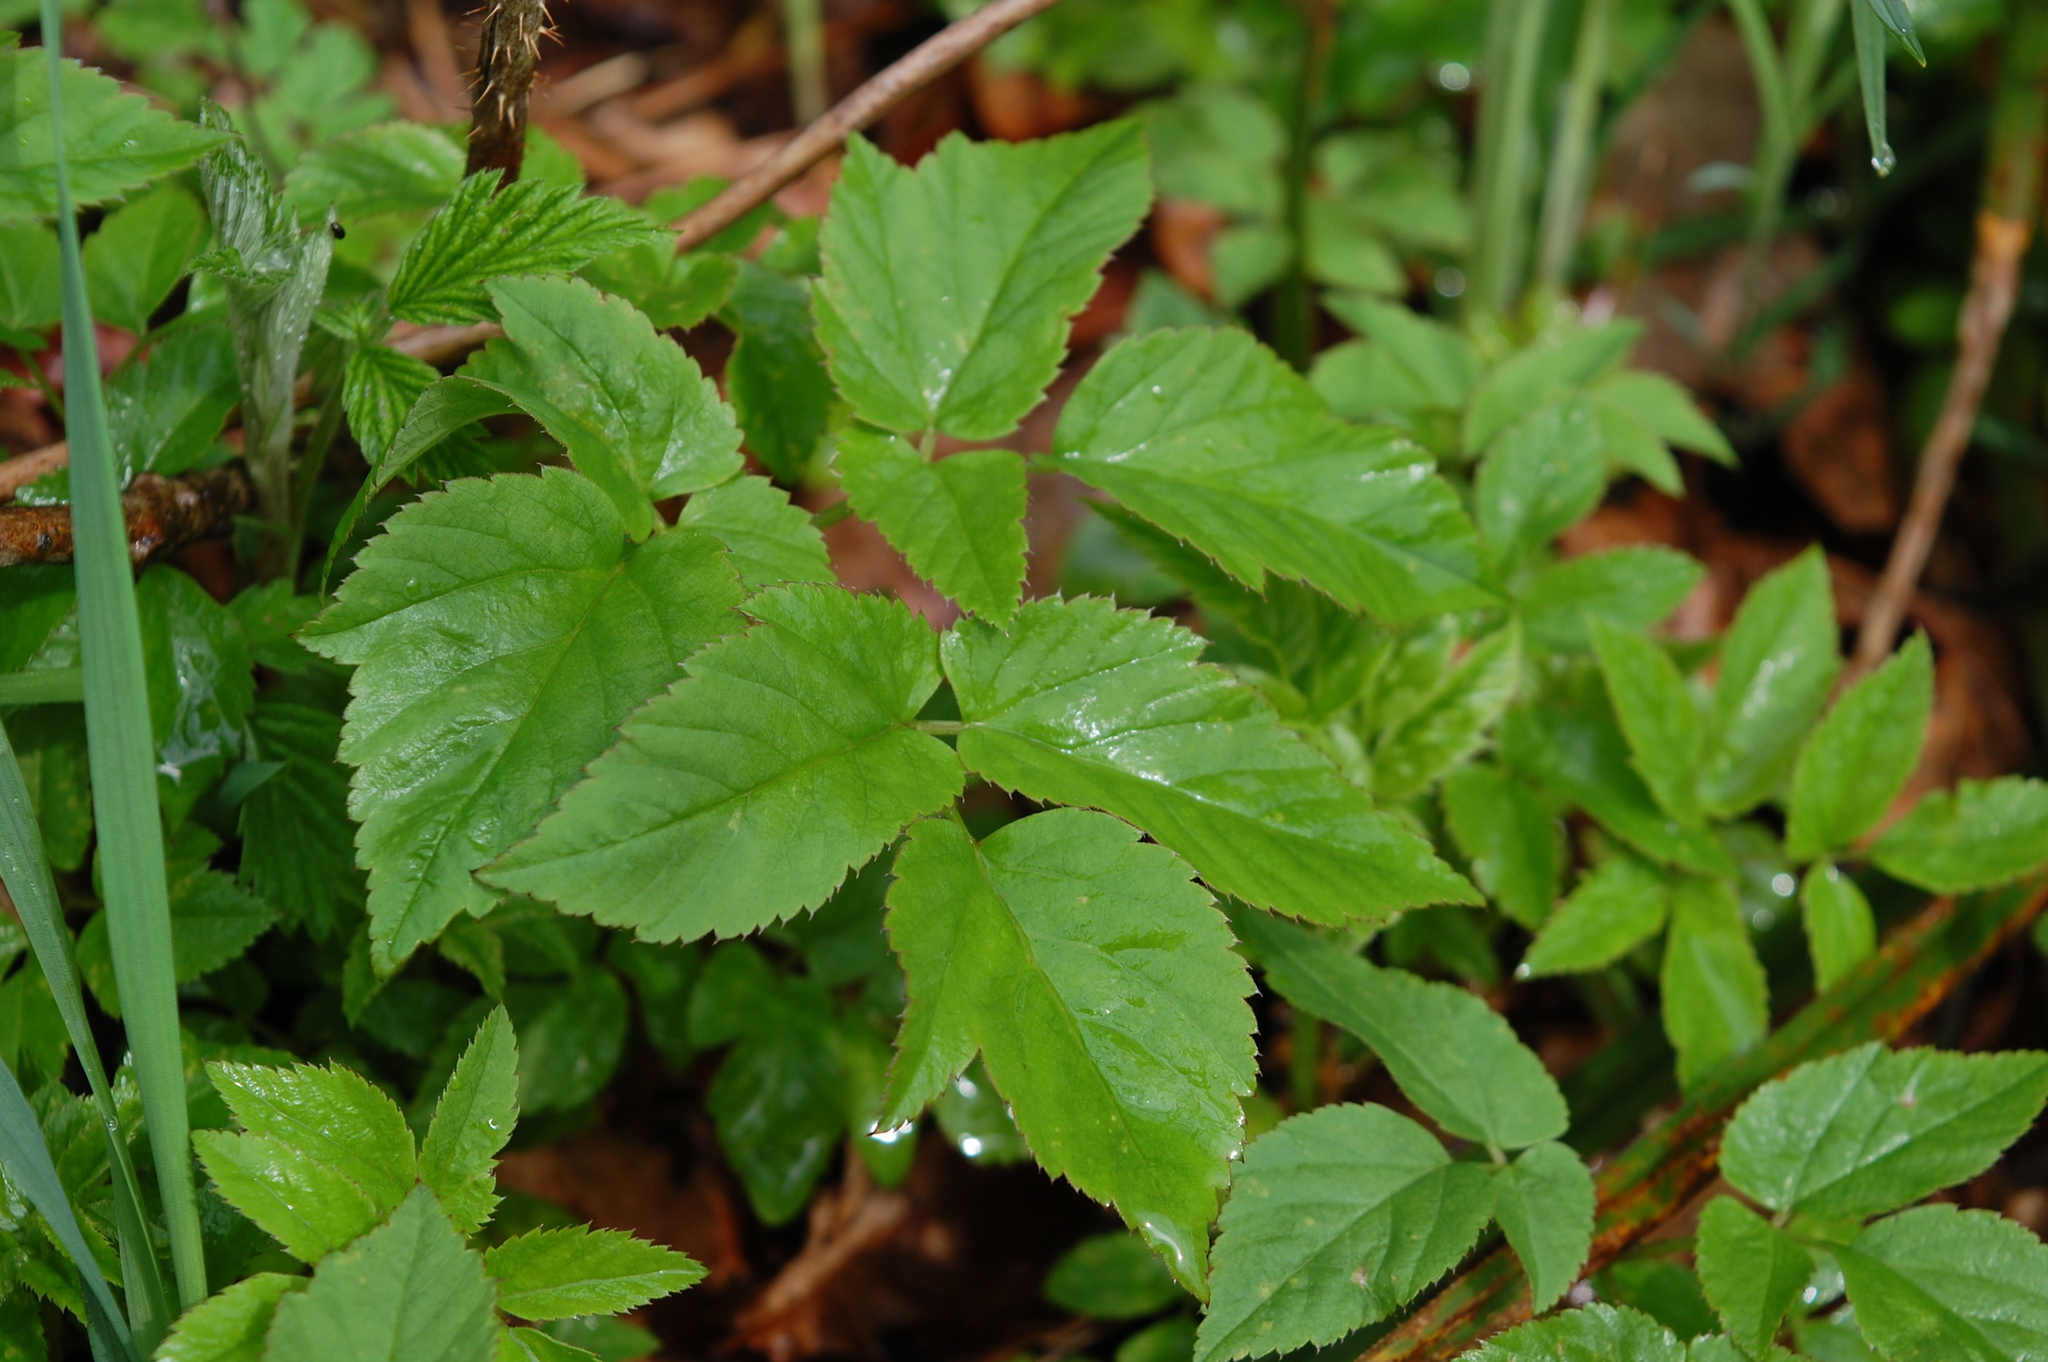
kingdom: Plantae
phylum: Tracheophyta
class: Magnoliopsida
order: Apiales
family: Apiaceae
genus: Aegopodium
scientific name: Aegopodium podagraria
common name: Ground-elder
